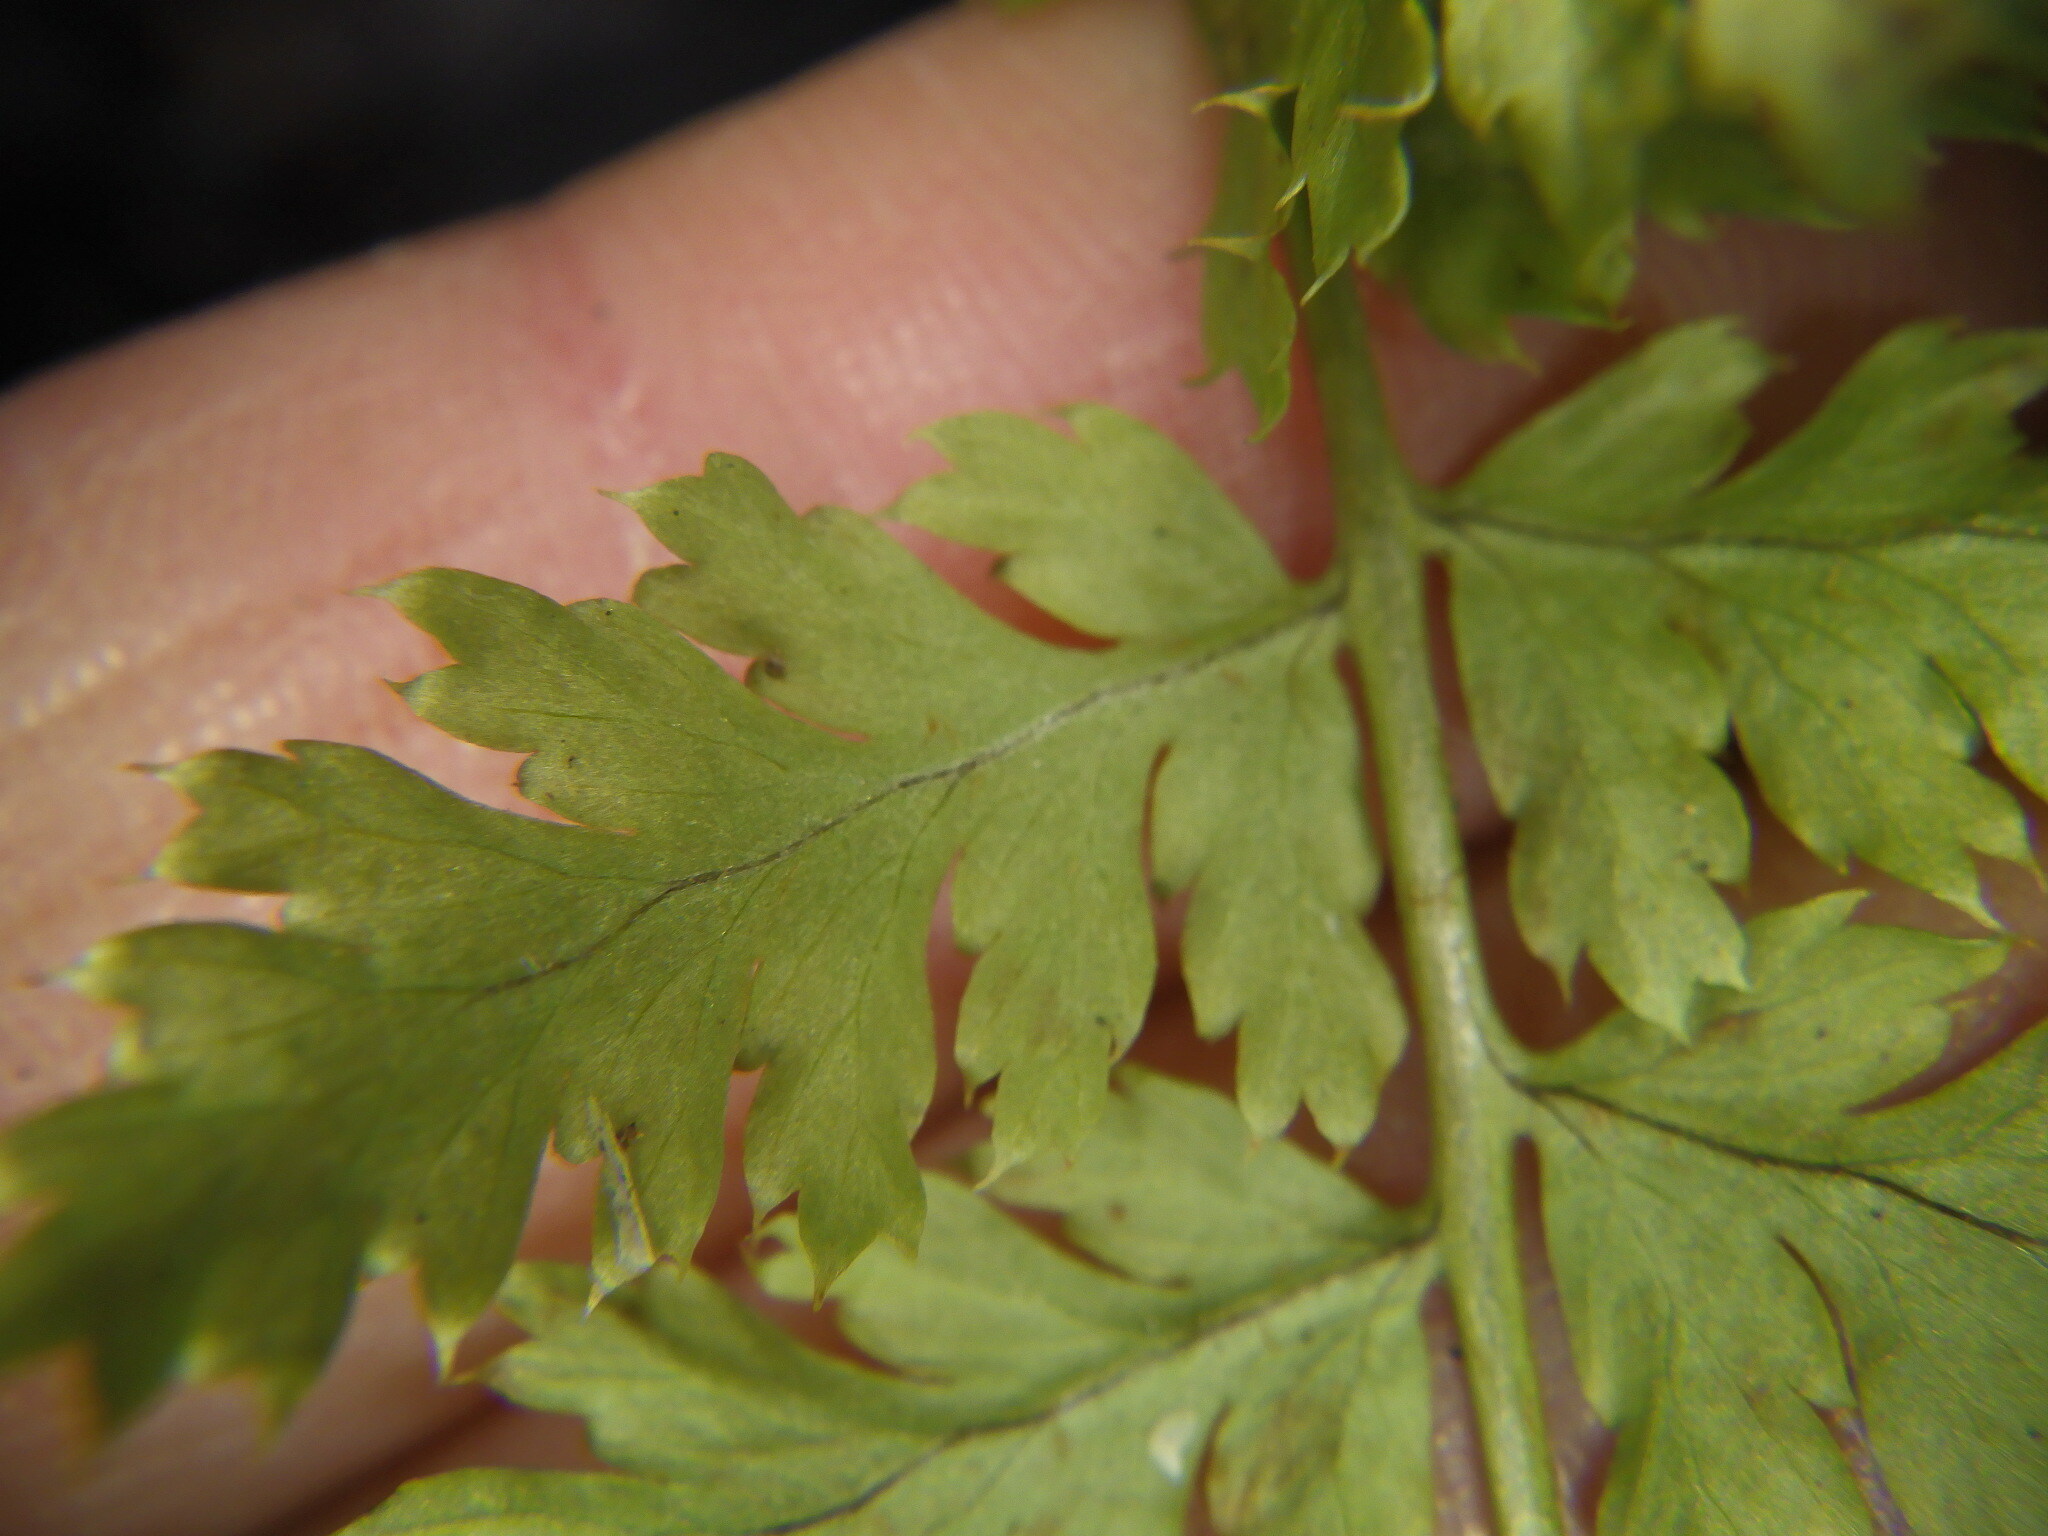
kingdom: Plantae
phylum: Tracheophyta
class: Polypodiopsida
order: Polypodiales
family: Dryopteridaceae
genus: Dryopteris
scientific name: Dryopteris intermedia
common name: Evergreen wood fern
